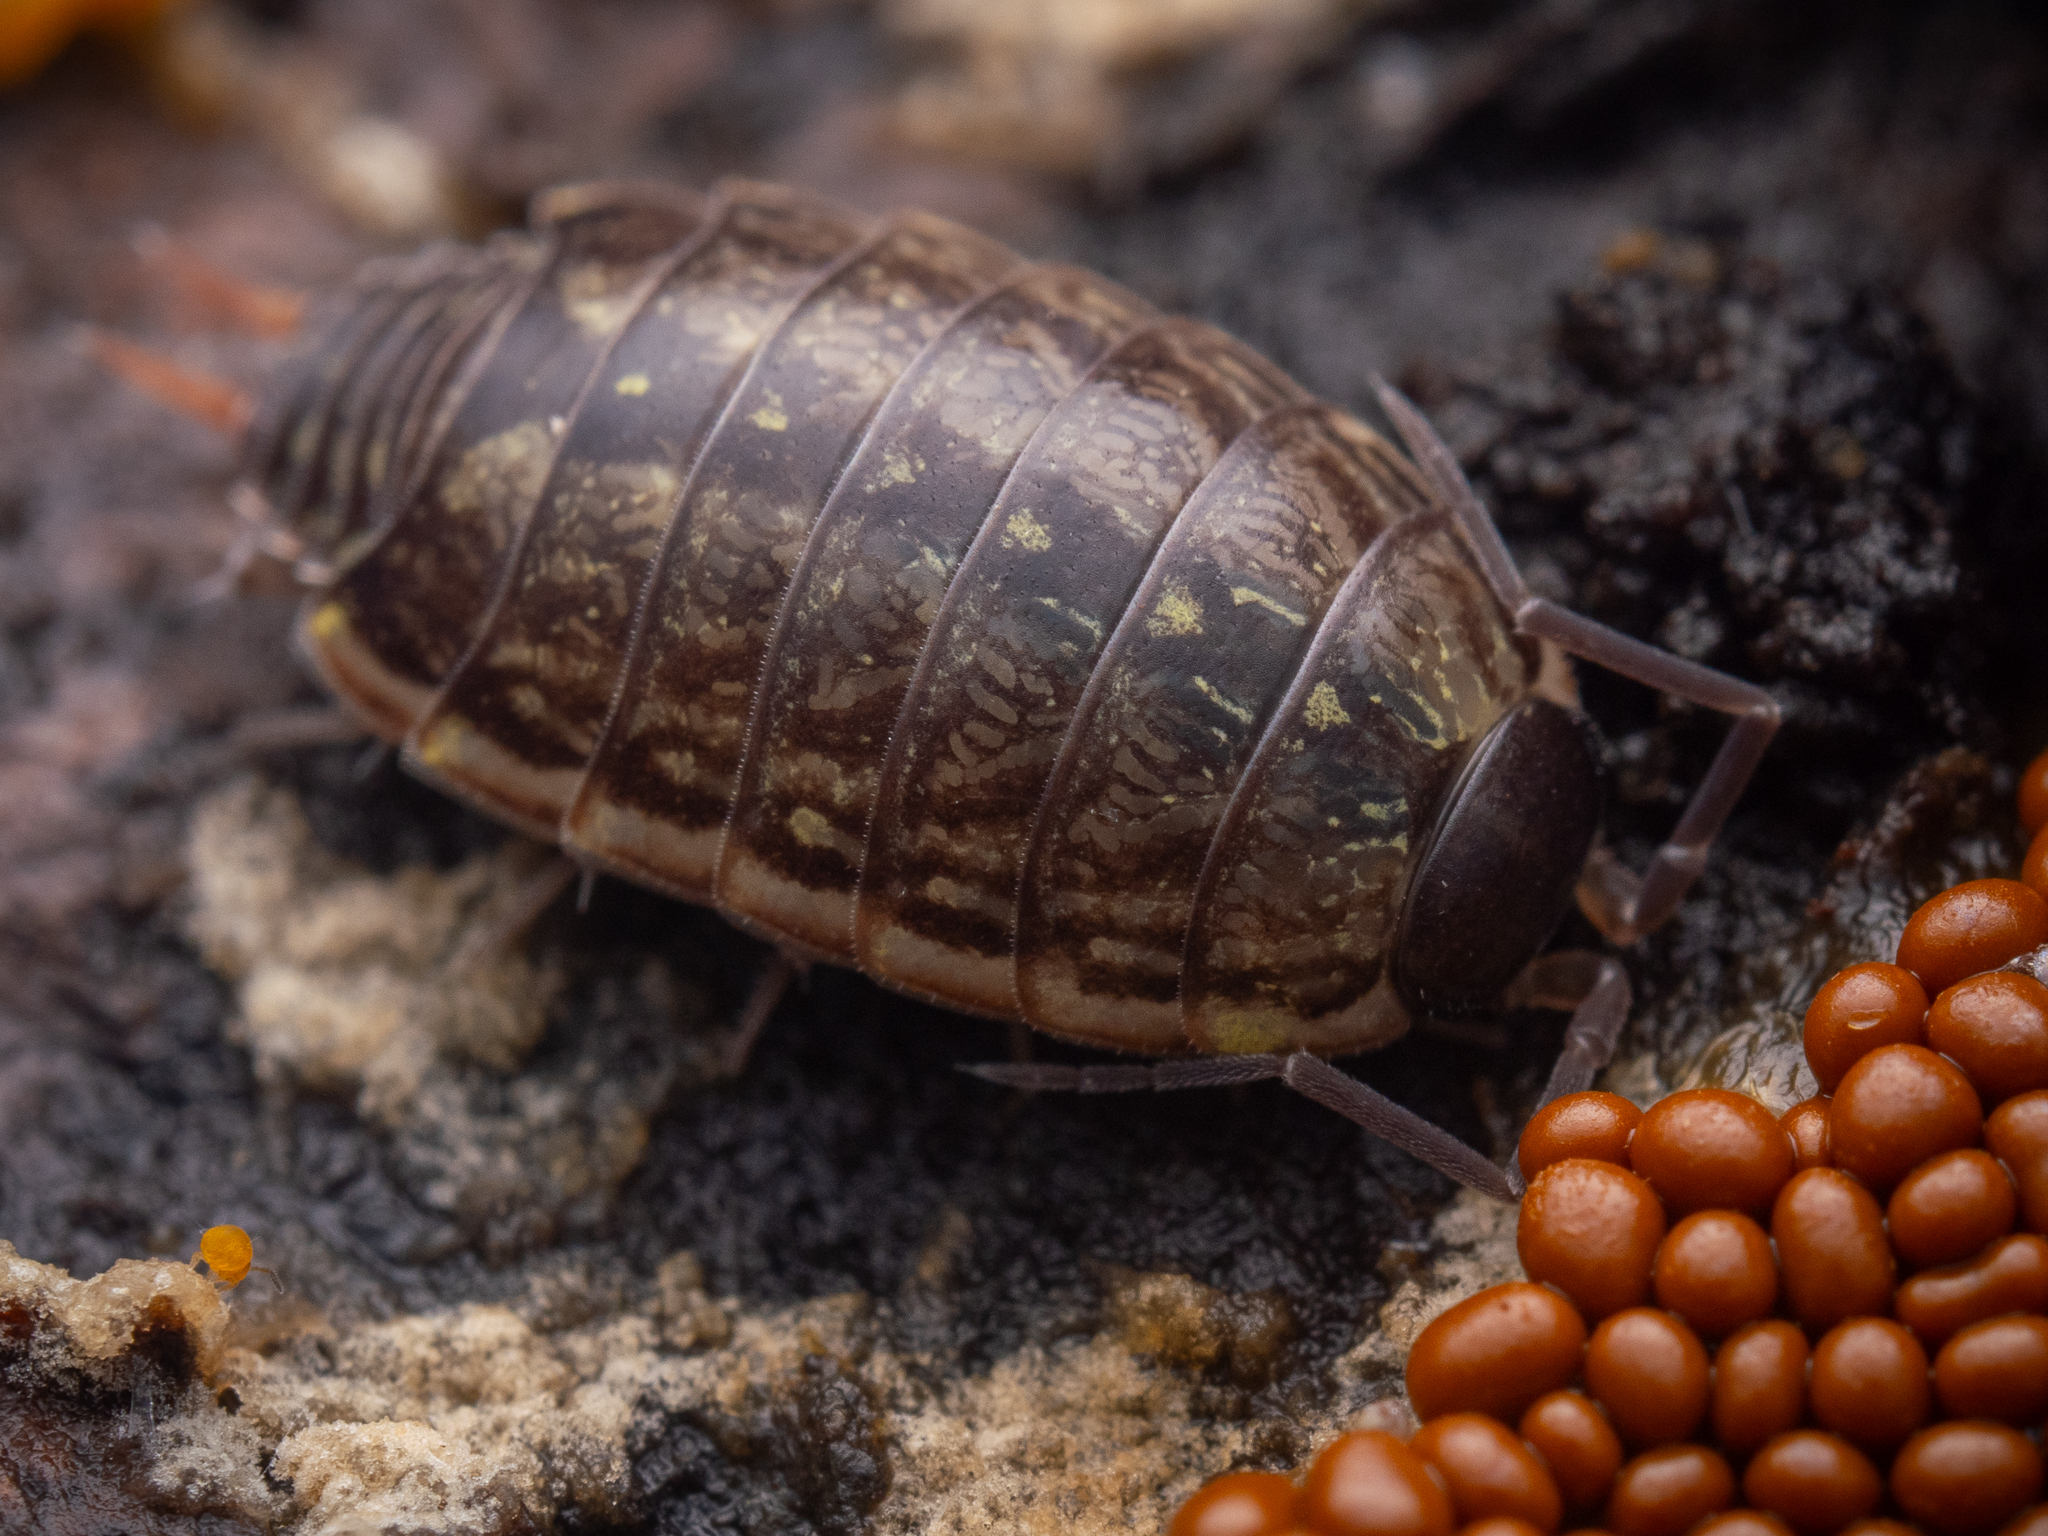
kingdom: Animalia
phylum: Arthropoda
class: Malacostraca
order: Isopoda
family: Philosciidae
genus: Philoscia
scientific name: Philoscia muscorum
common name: Common striped woodlouse
